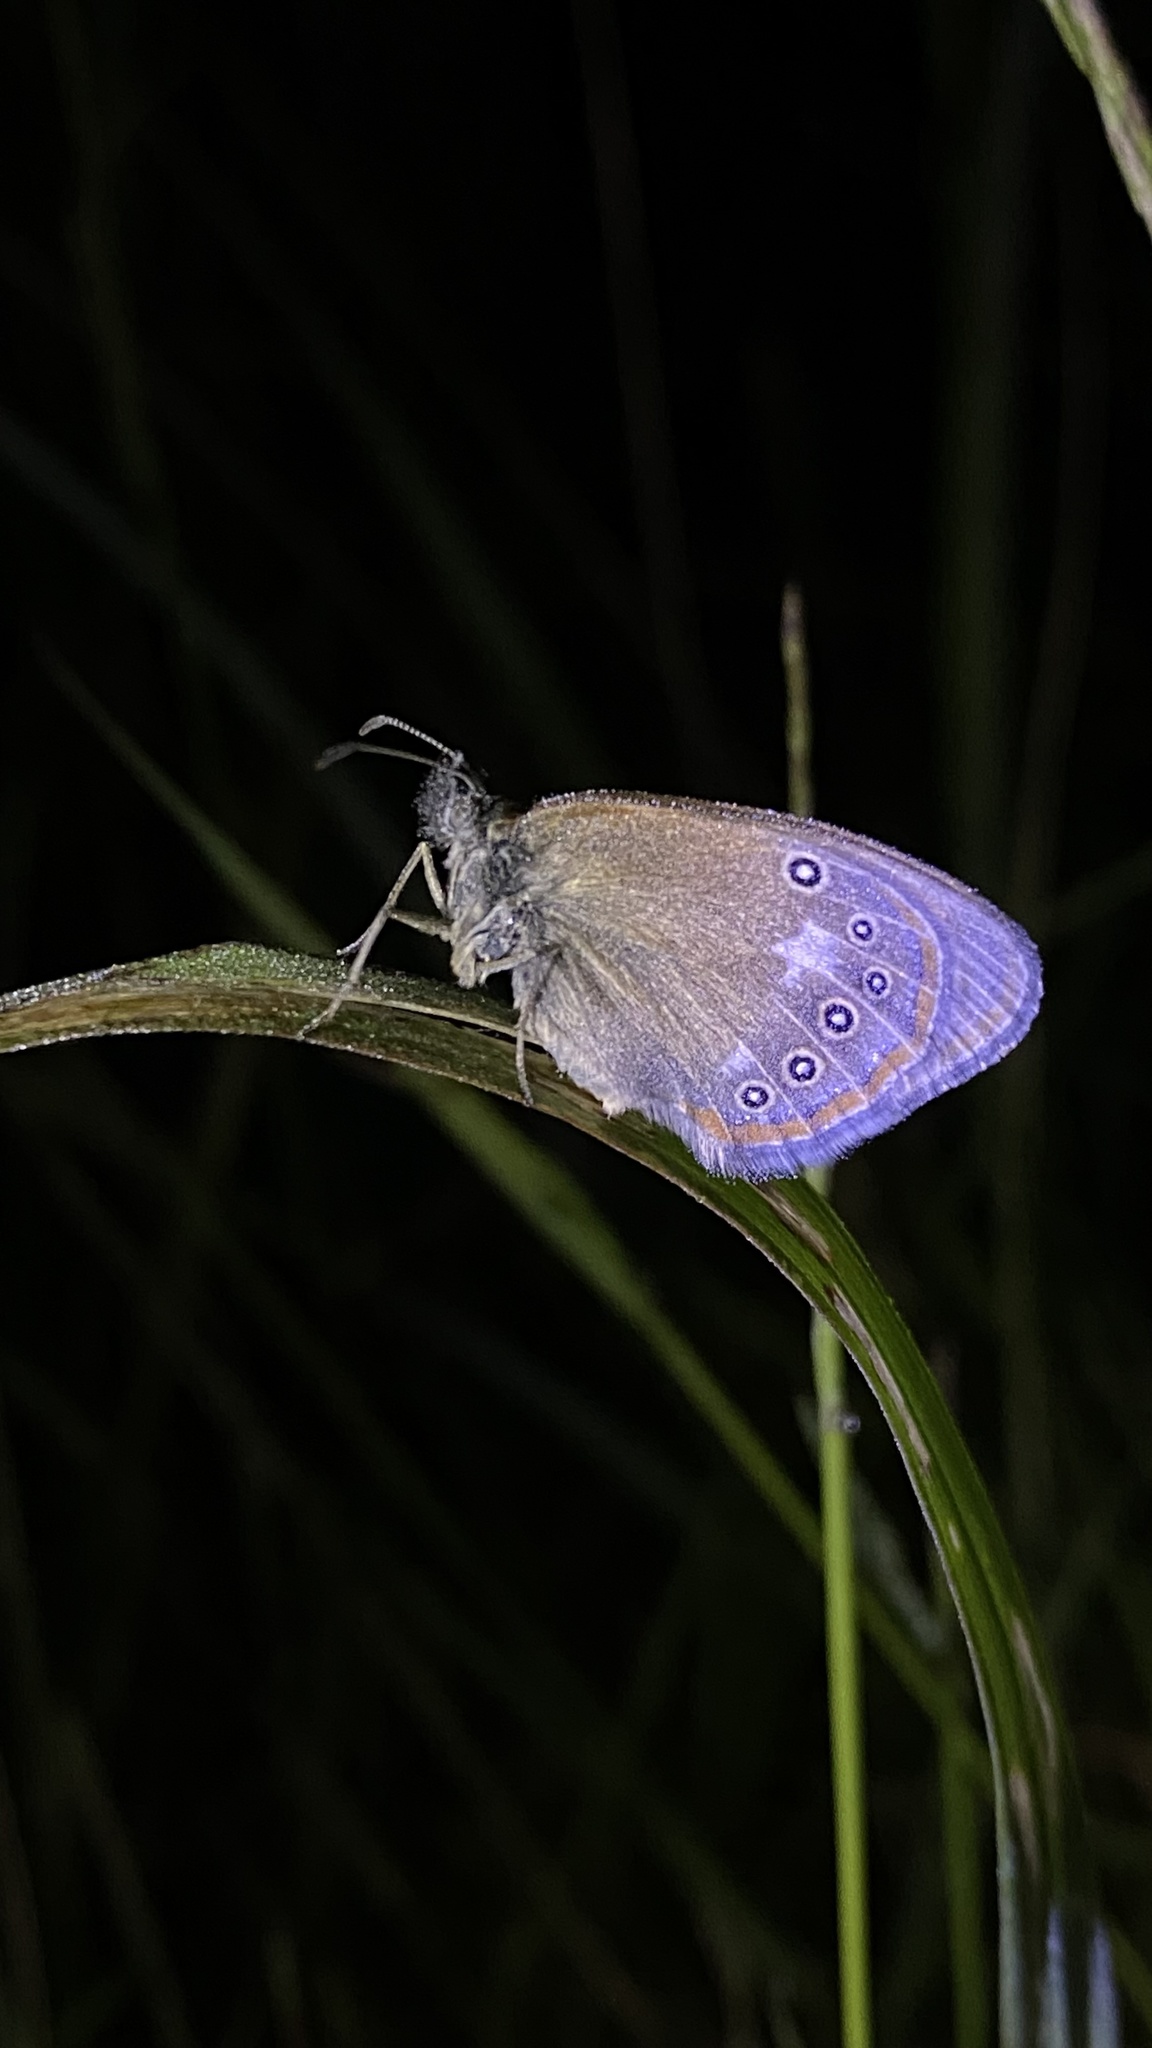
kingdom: Animalia
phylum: Arthropoda
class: Insecta
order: Lepidoptera
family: Nymphalidae
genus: Coenonympha
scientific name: Coenonympha iphis
